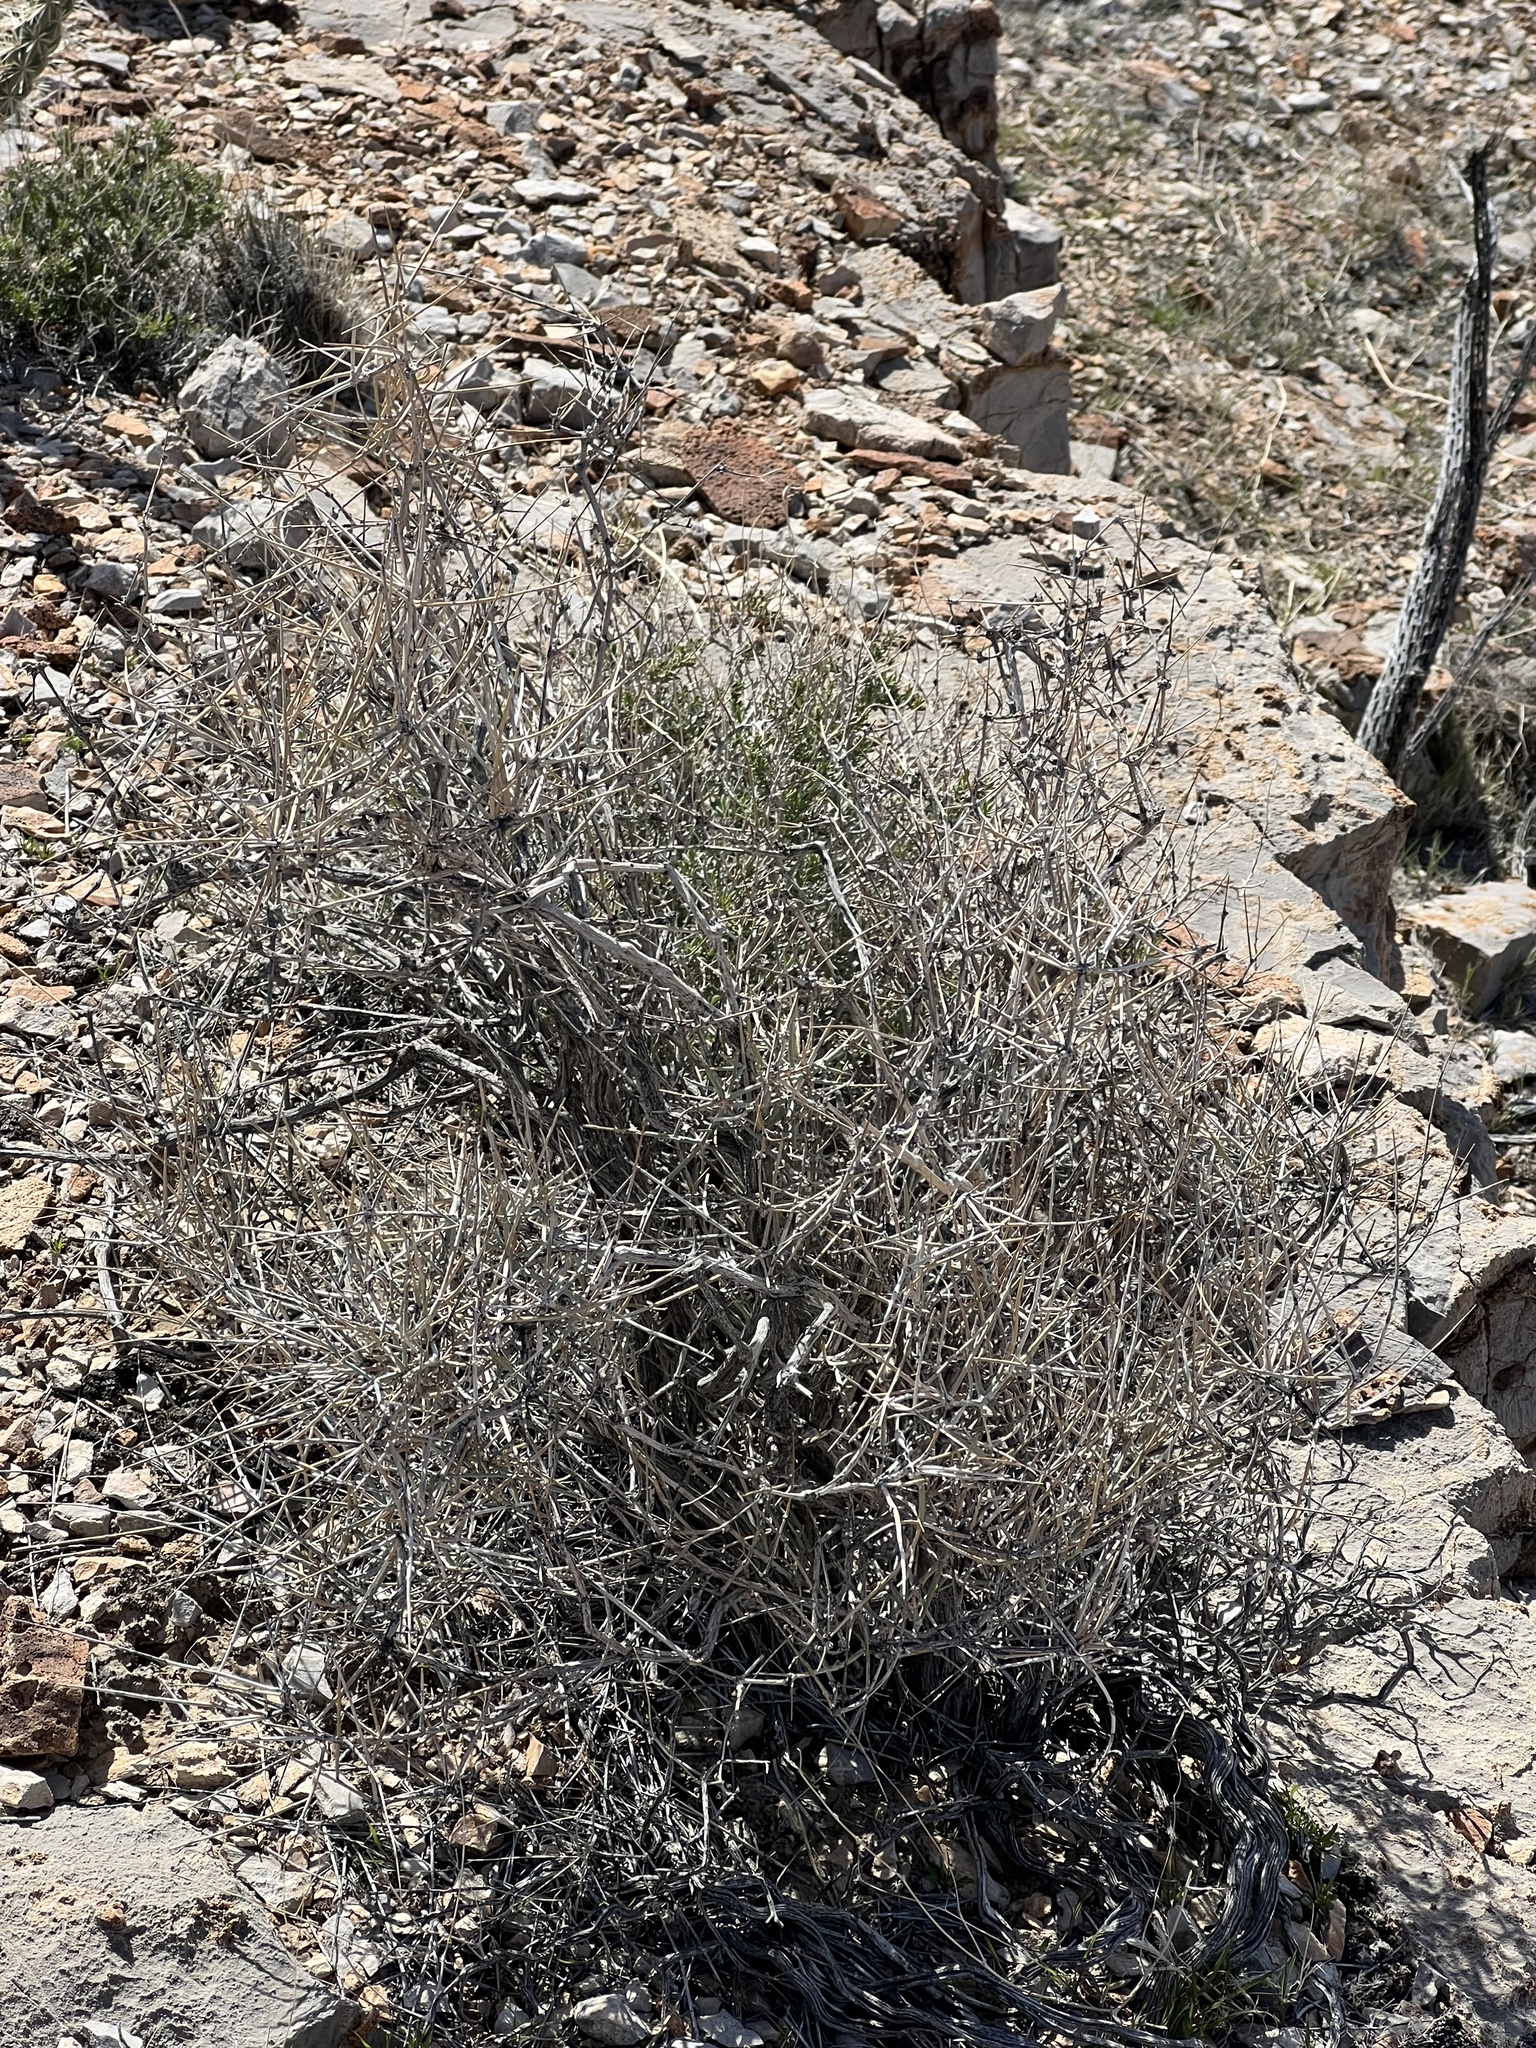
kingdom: Plantae
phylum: Tracheophyta
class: Magnoliopsida
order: Asterales
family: Asteraceae
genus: Ambrosia
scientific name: Ambrosia dumosa
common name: Bur-sage
